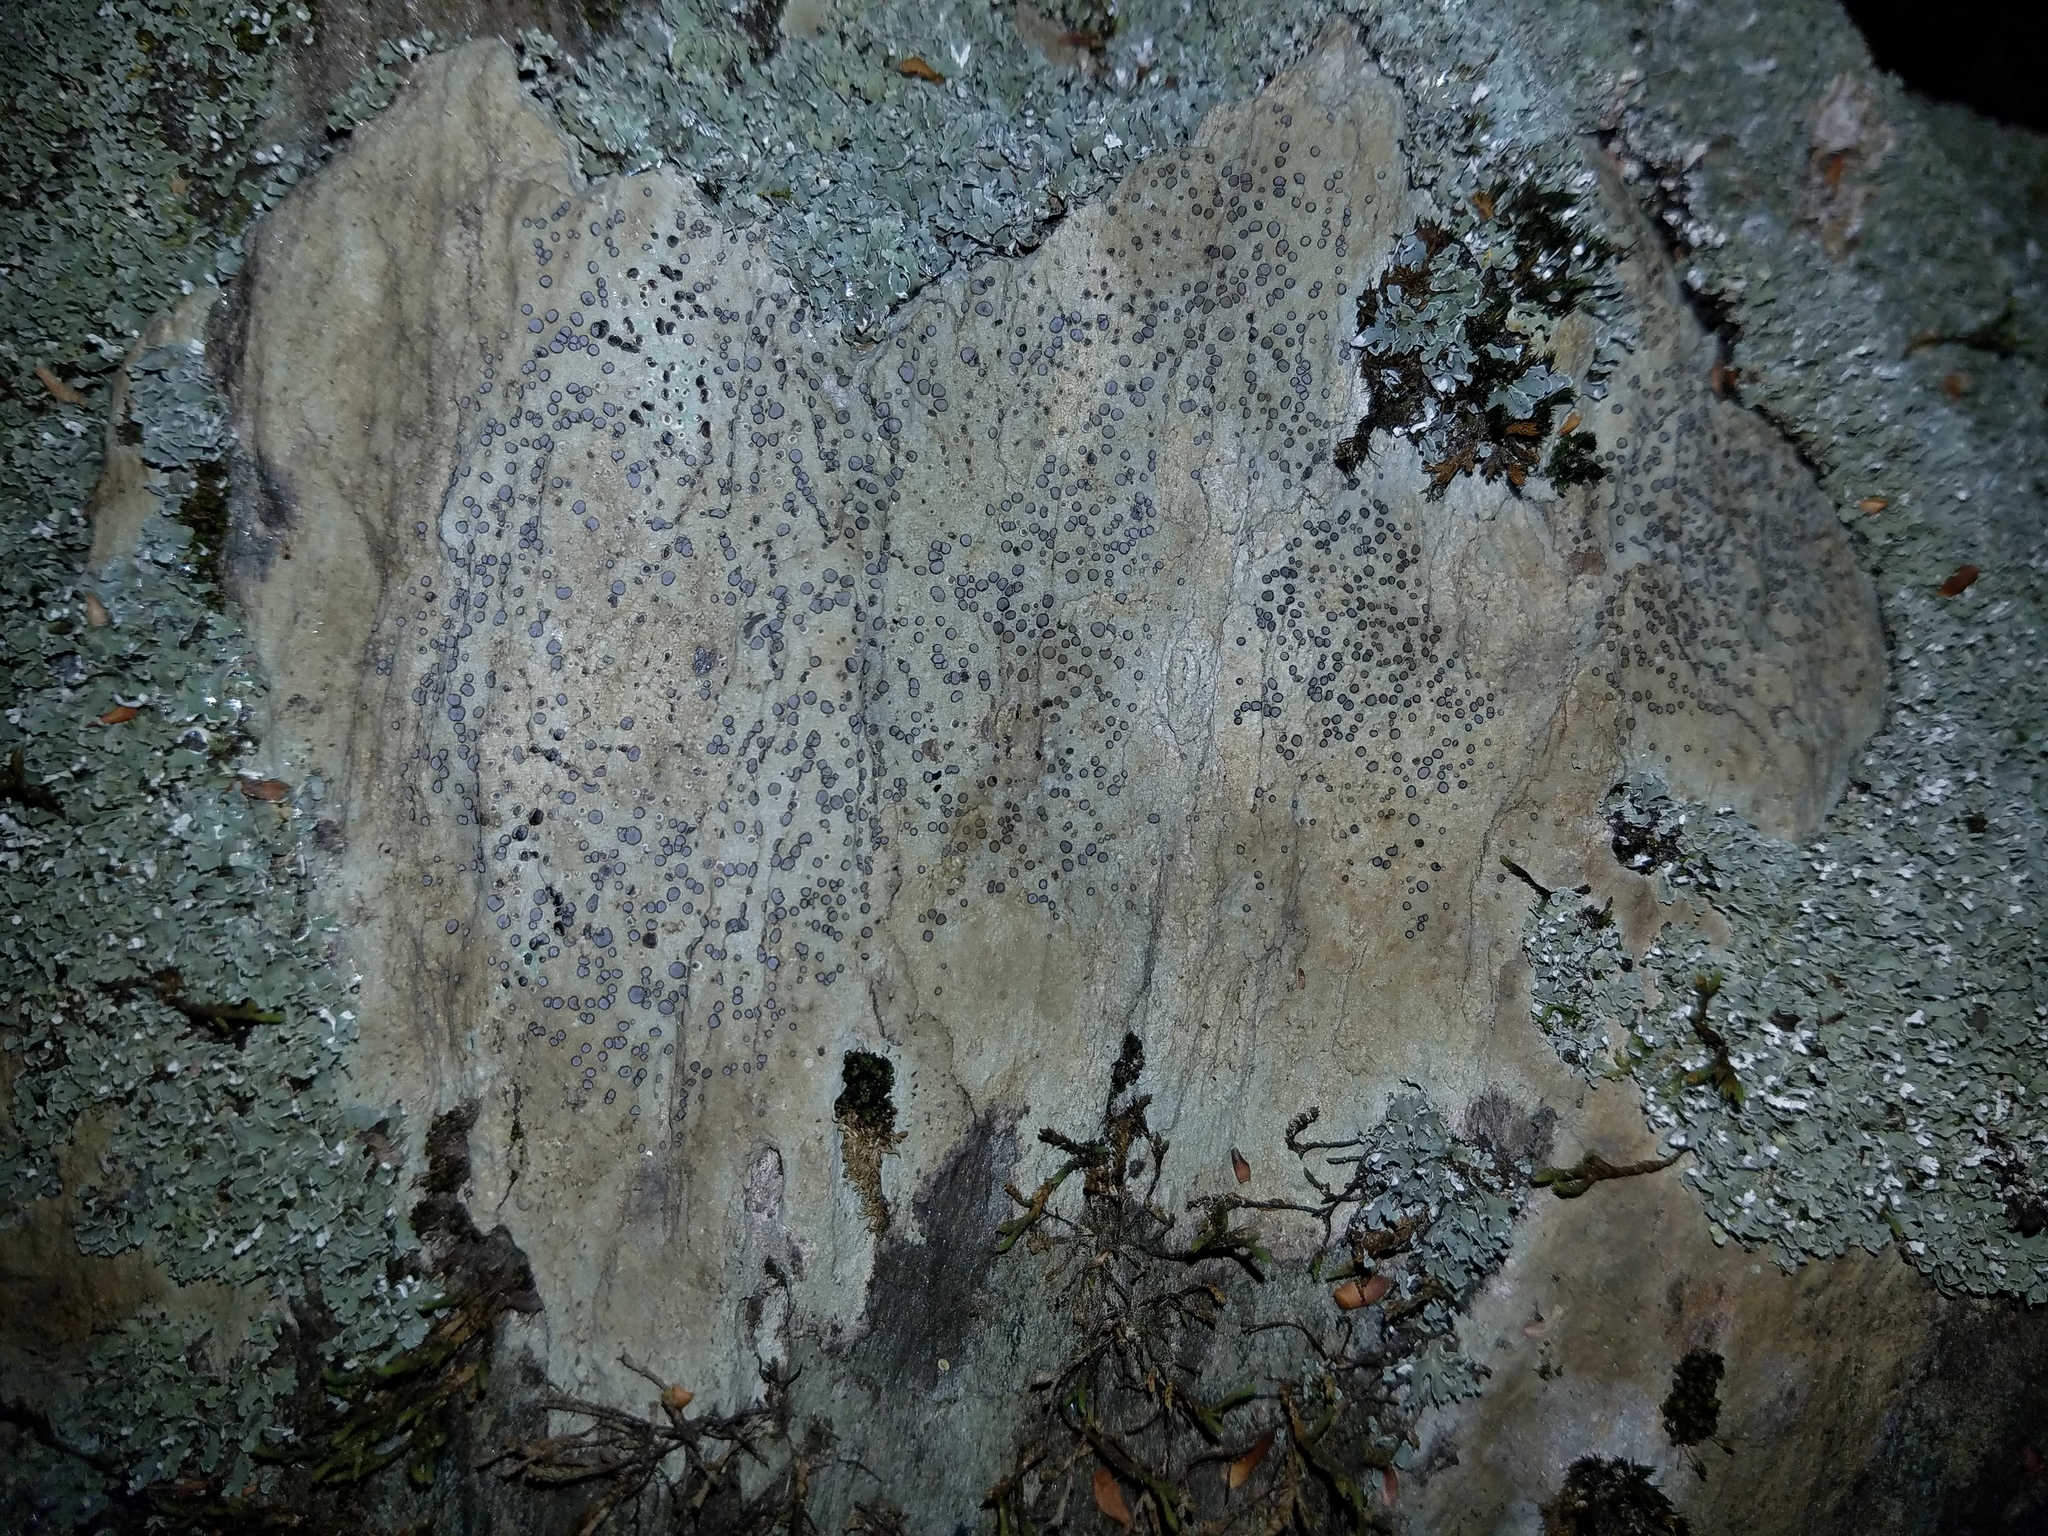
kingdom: Fungi
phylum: Ascomycota
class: Lecanoromycetes
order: Lecideales
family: Lecideaceae
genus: Porpidia
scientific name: Porpidia albocaerulescens
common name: Smokey-eyed boulder lichen
